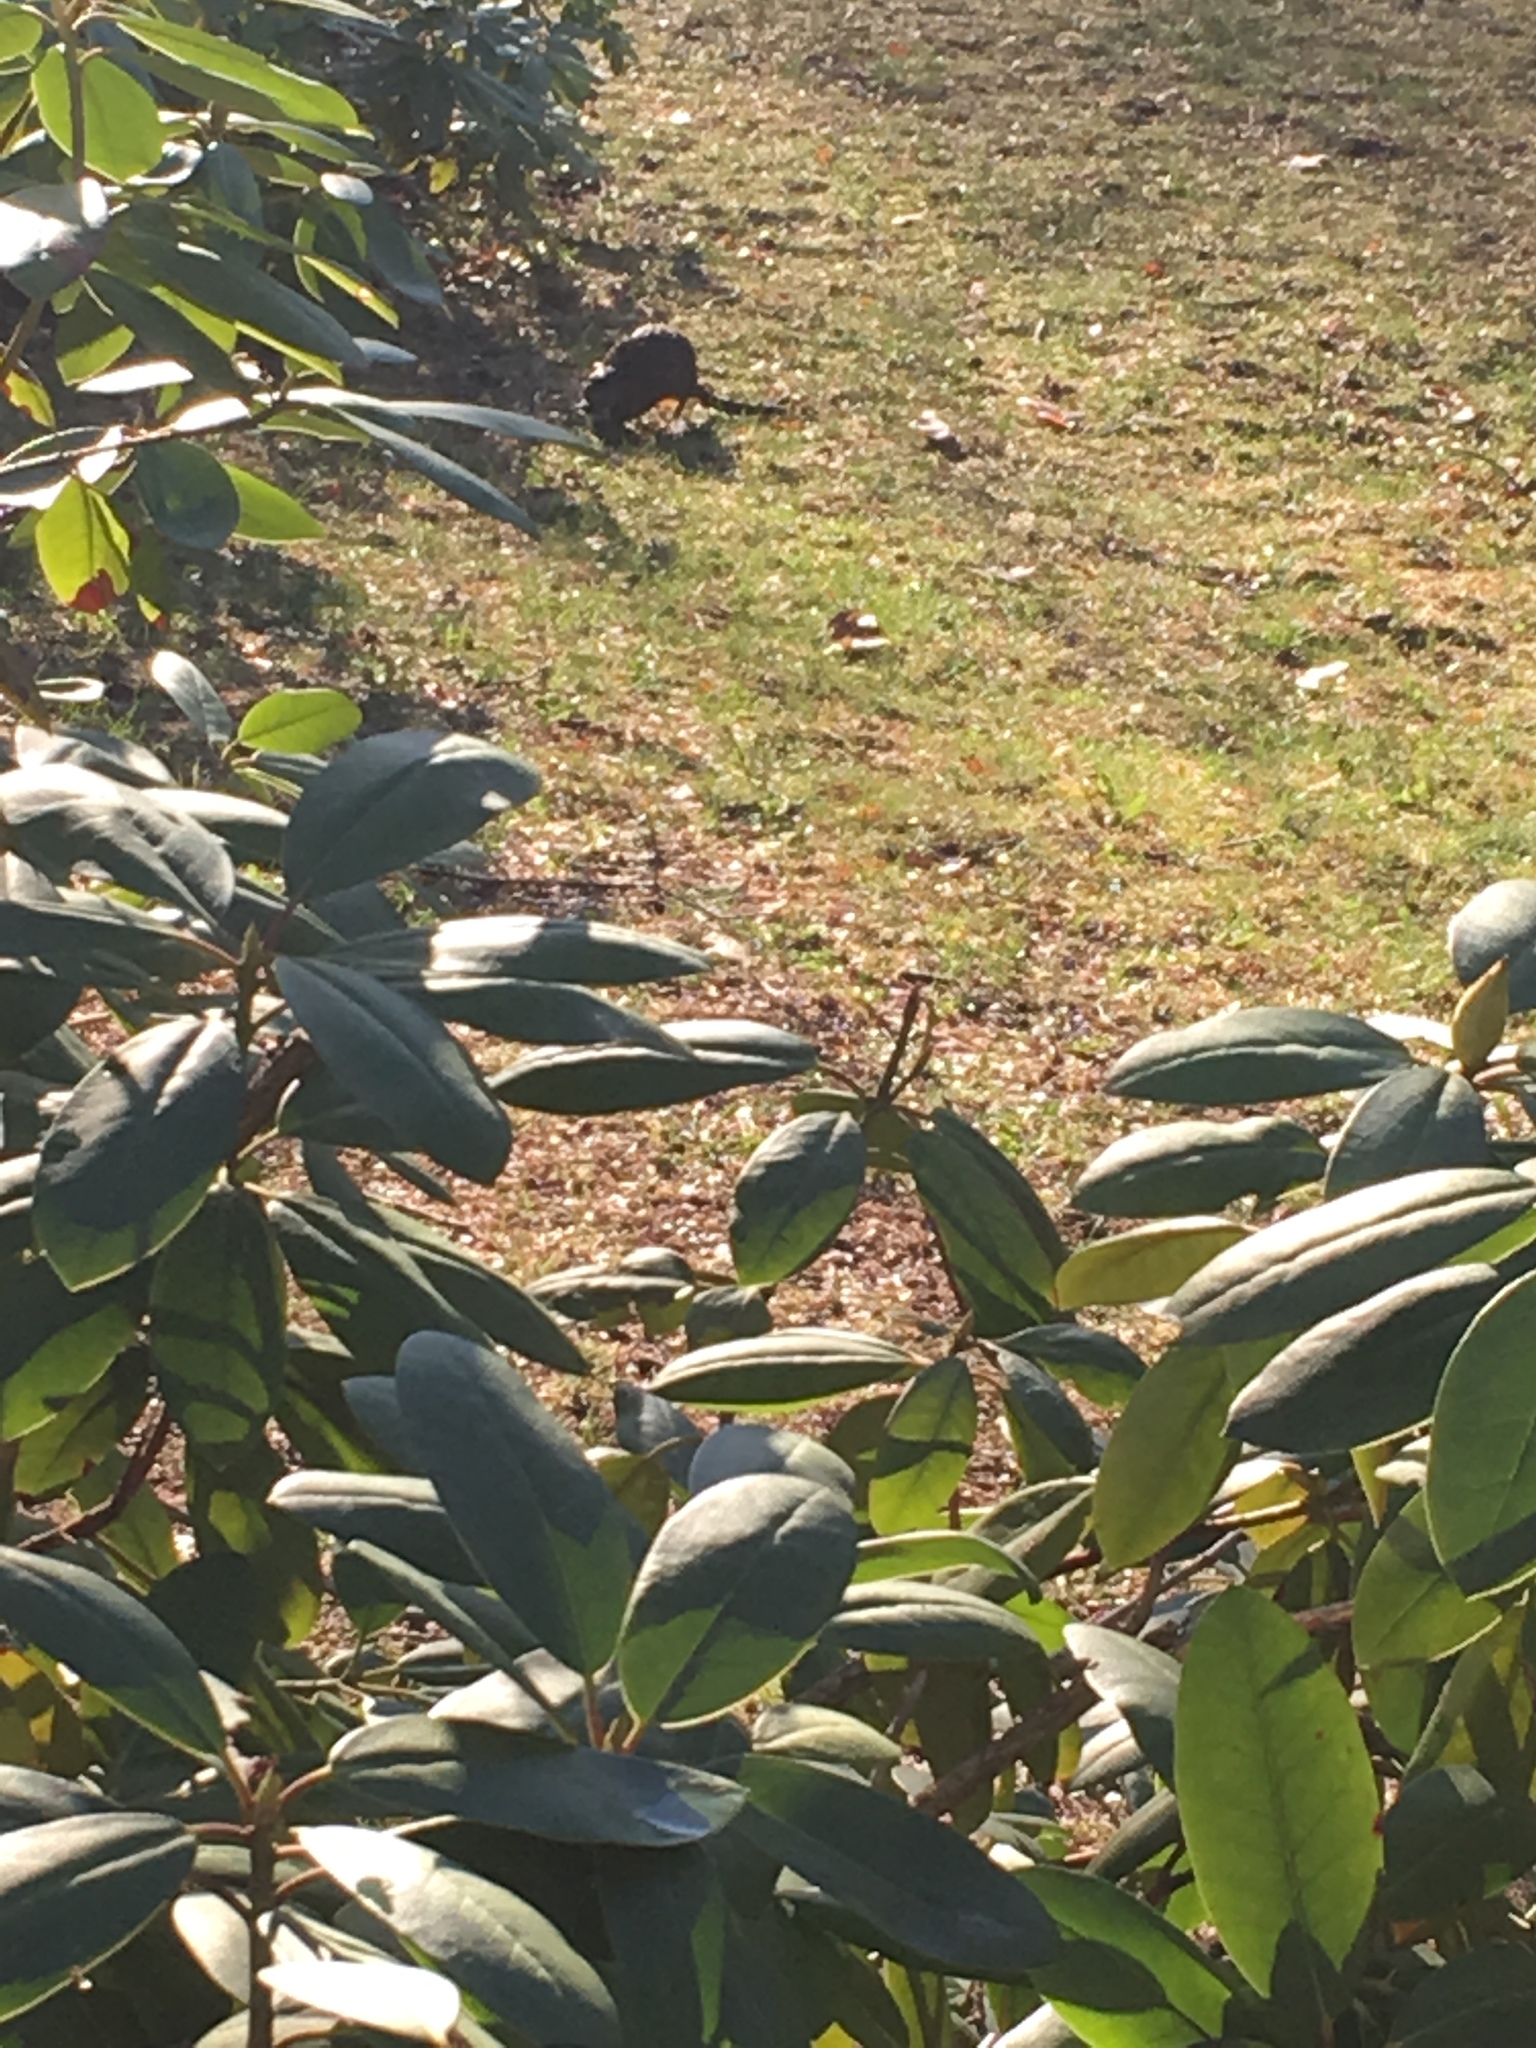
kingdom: Animalia
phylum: Chordata
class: Mammalia
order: Rodentia
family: Cricetidae
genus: Ondatra
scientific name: Ondatra zibethicus
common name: Muskrat
